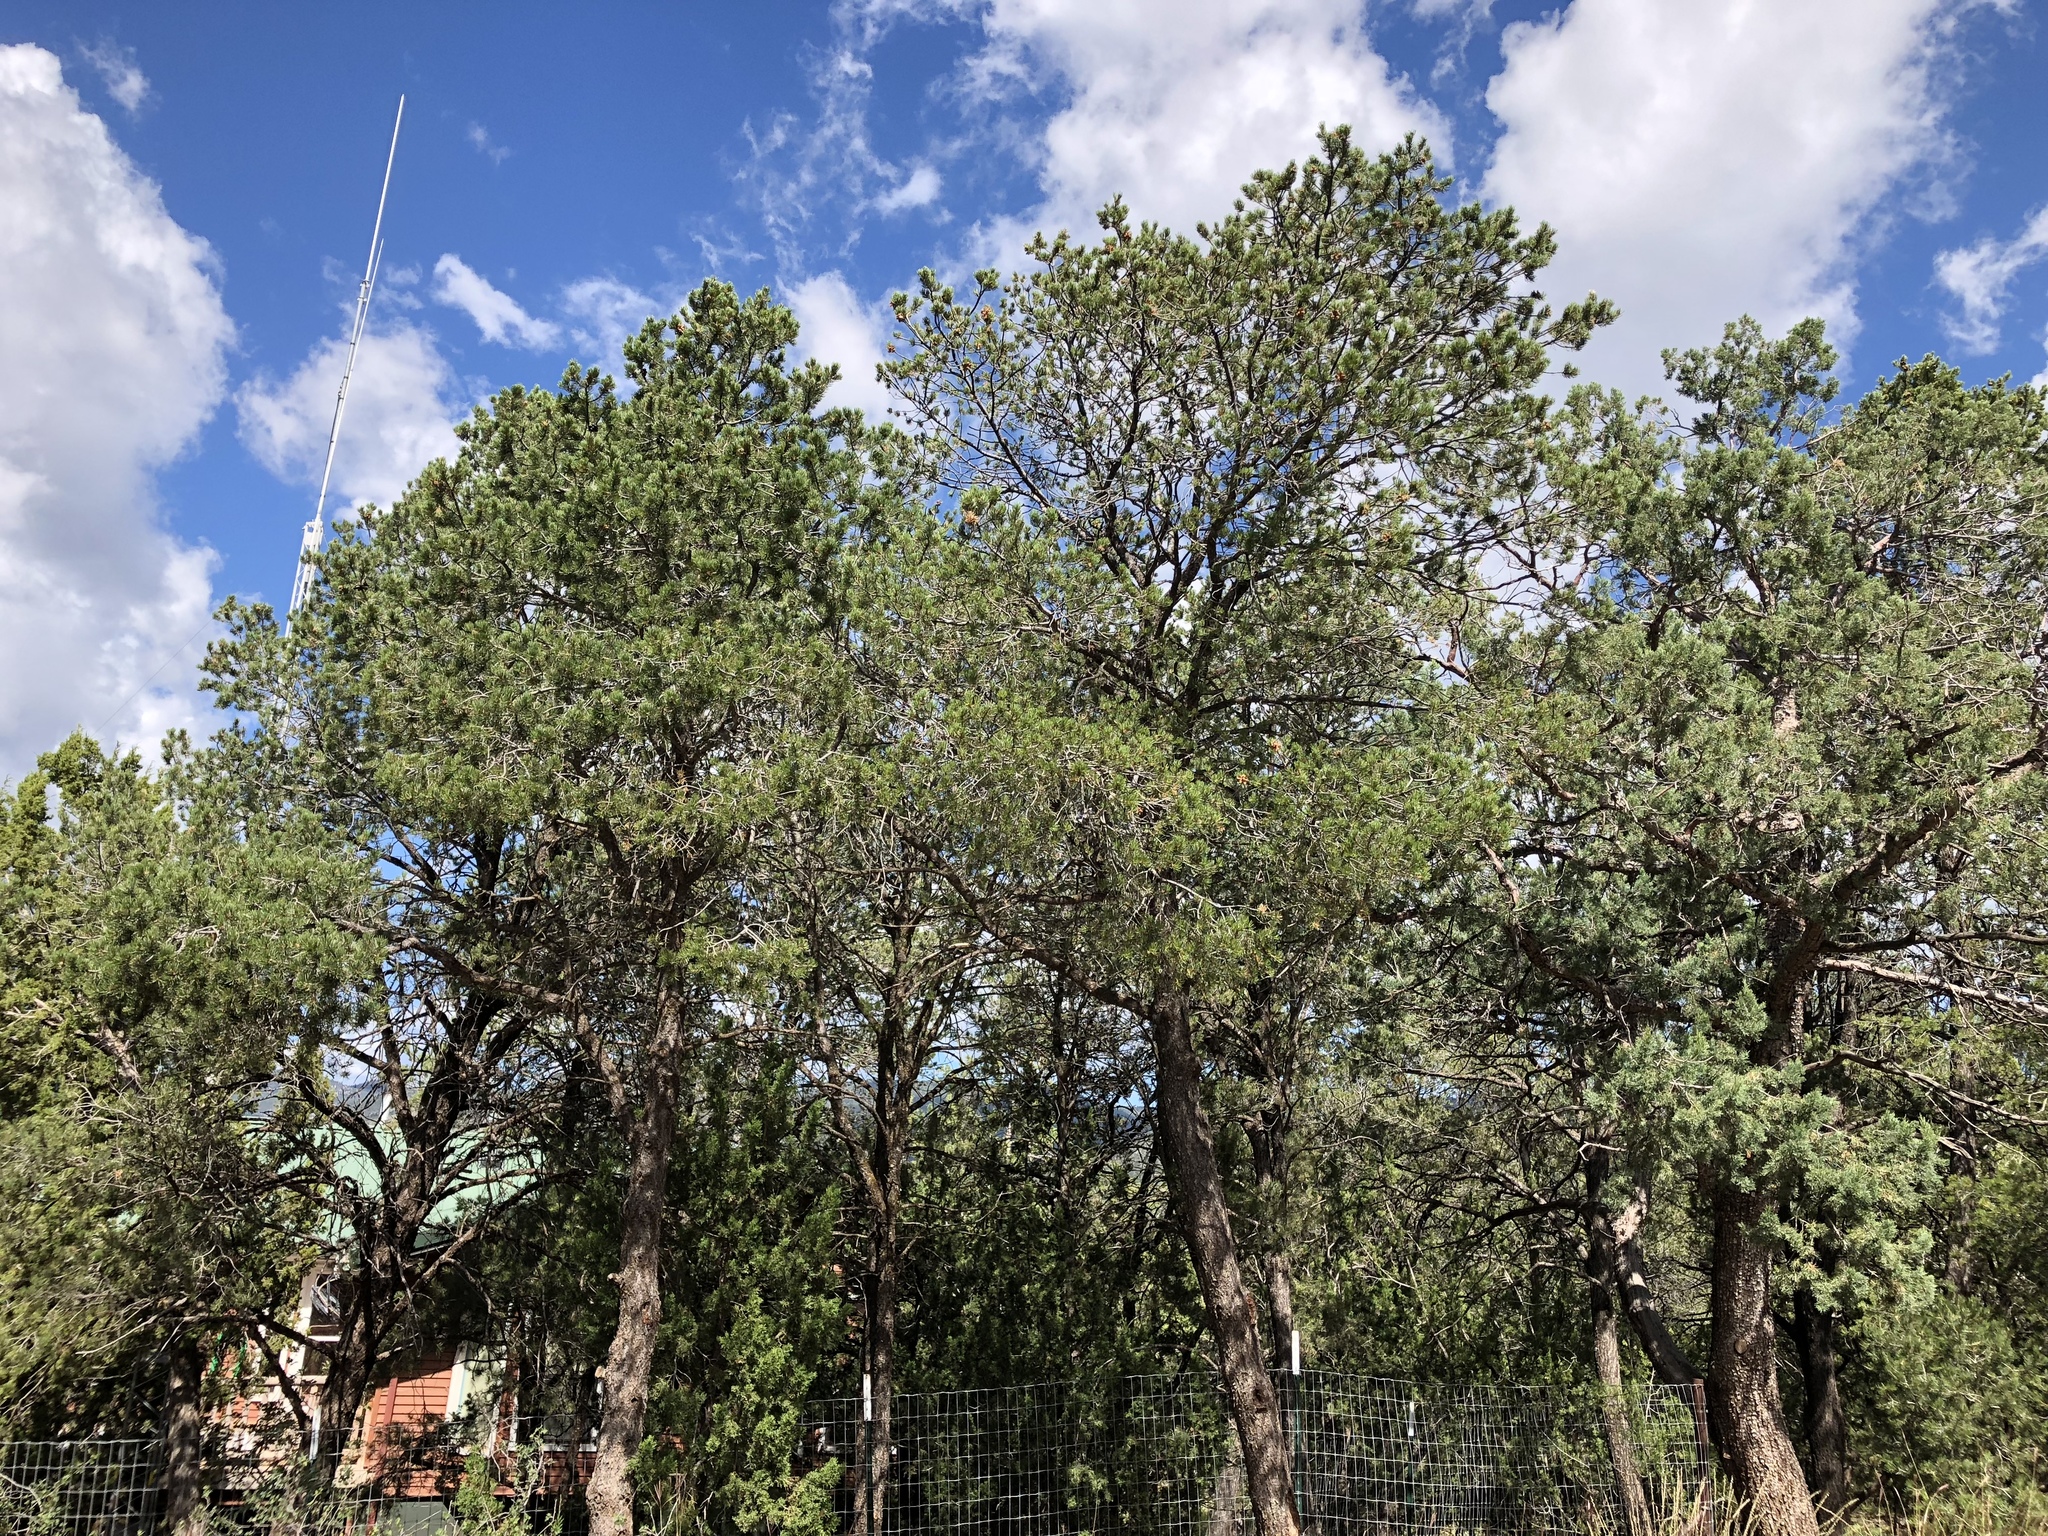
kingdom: Plantae
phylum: Tracheophyta
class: Pinopsida
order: Pinales
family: Pinaceae
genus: Pinus
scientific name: Pinus edulis
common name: Colorado pinyon
